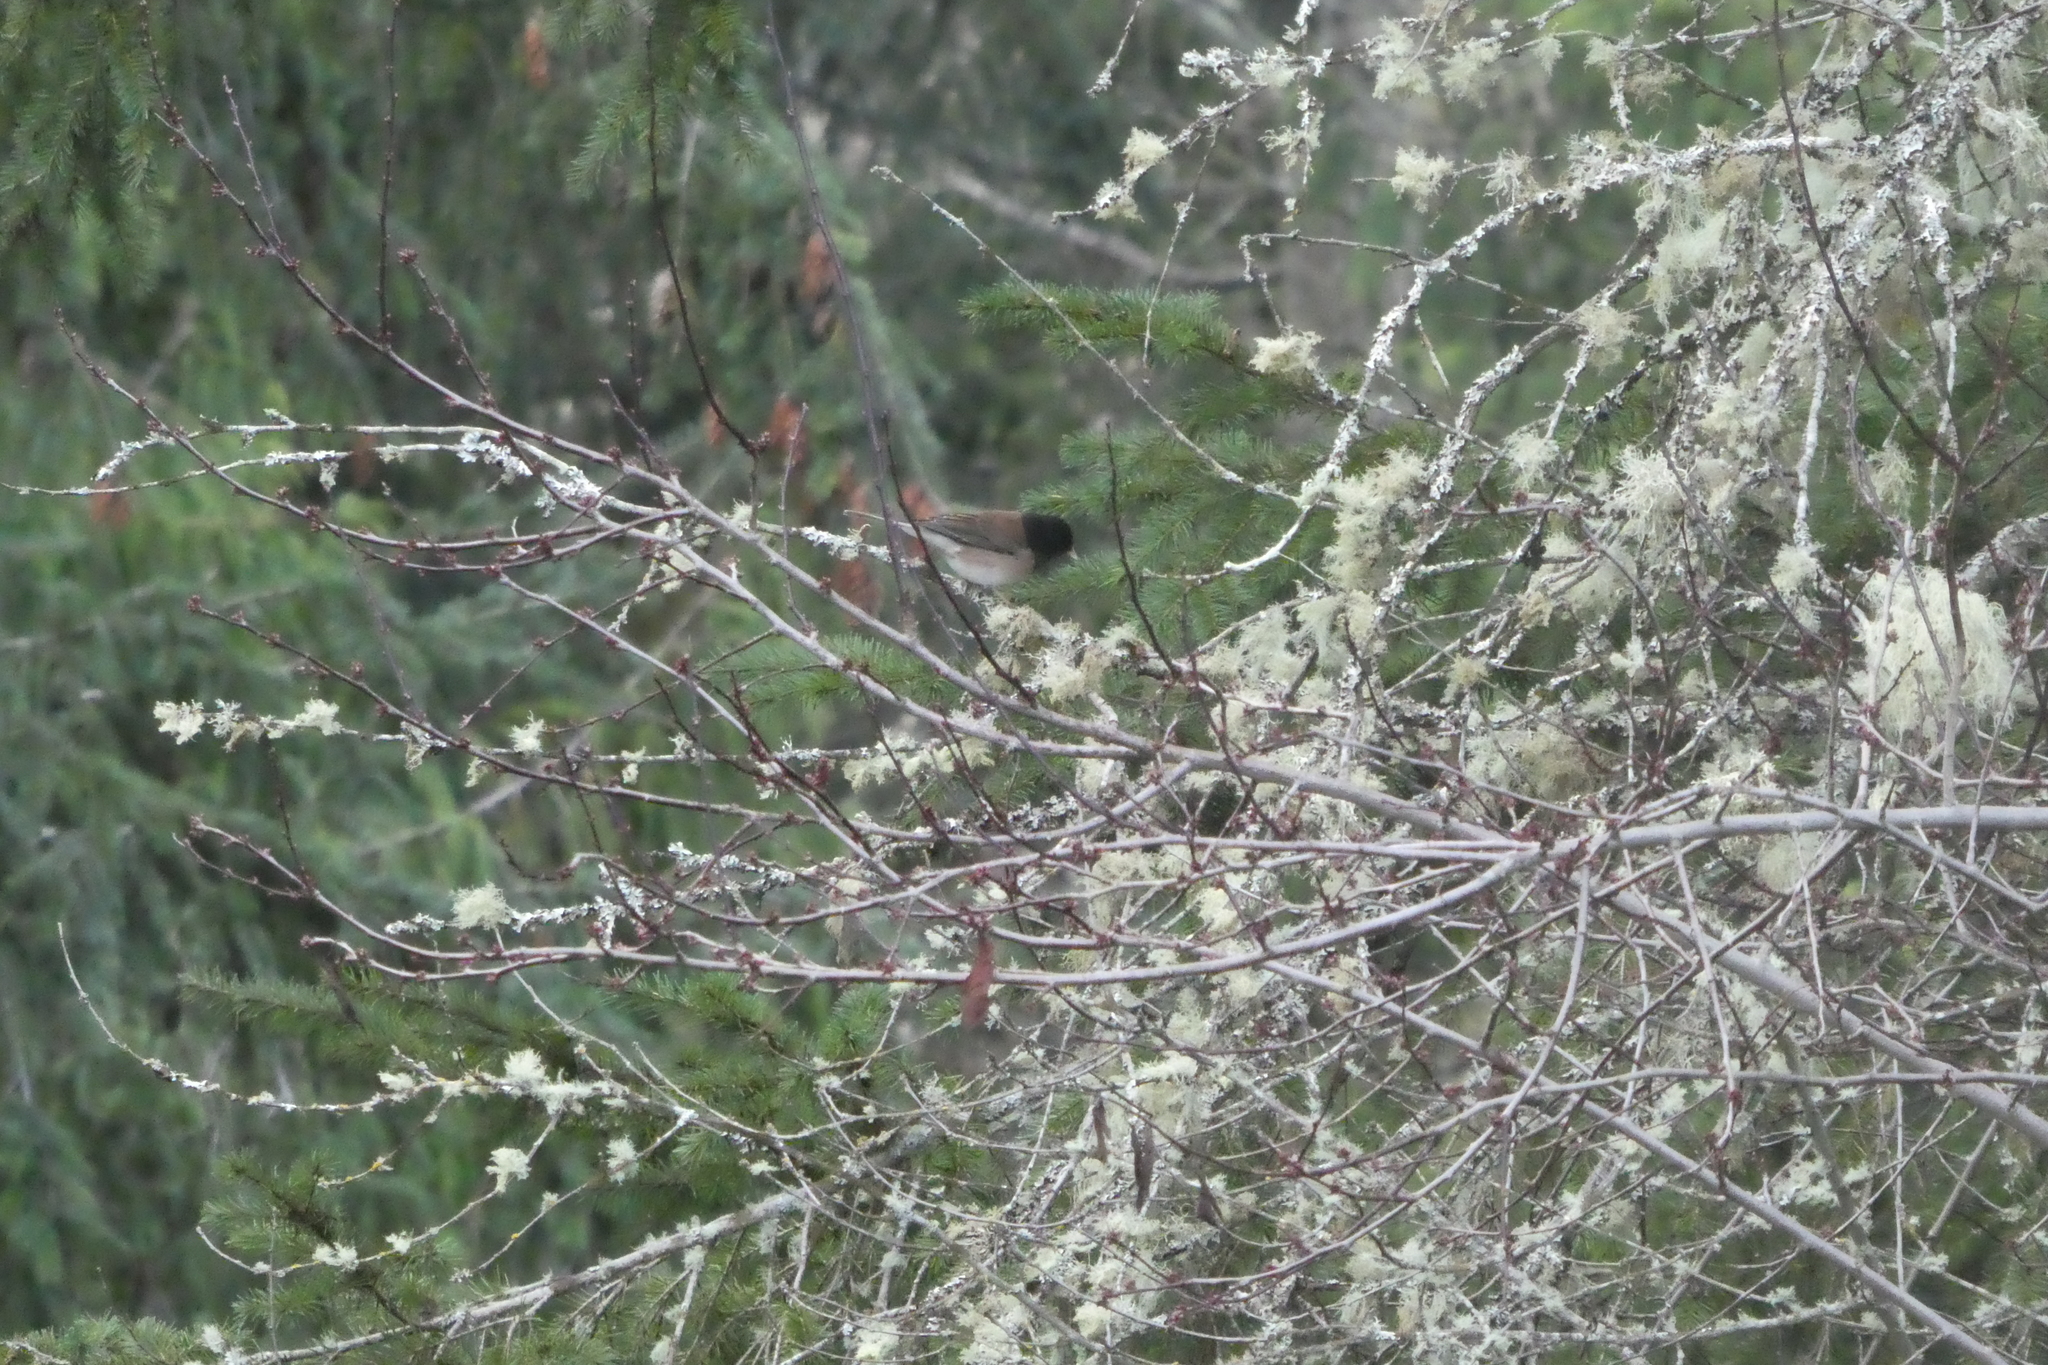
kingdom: Animalia
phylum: Chordata
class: Aves
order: Passeriformes
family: Passerellidae
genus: Junco
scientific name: Junco hyemalis
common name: Dark-eyed junco
